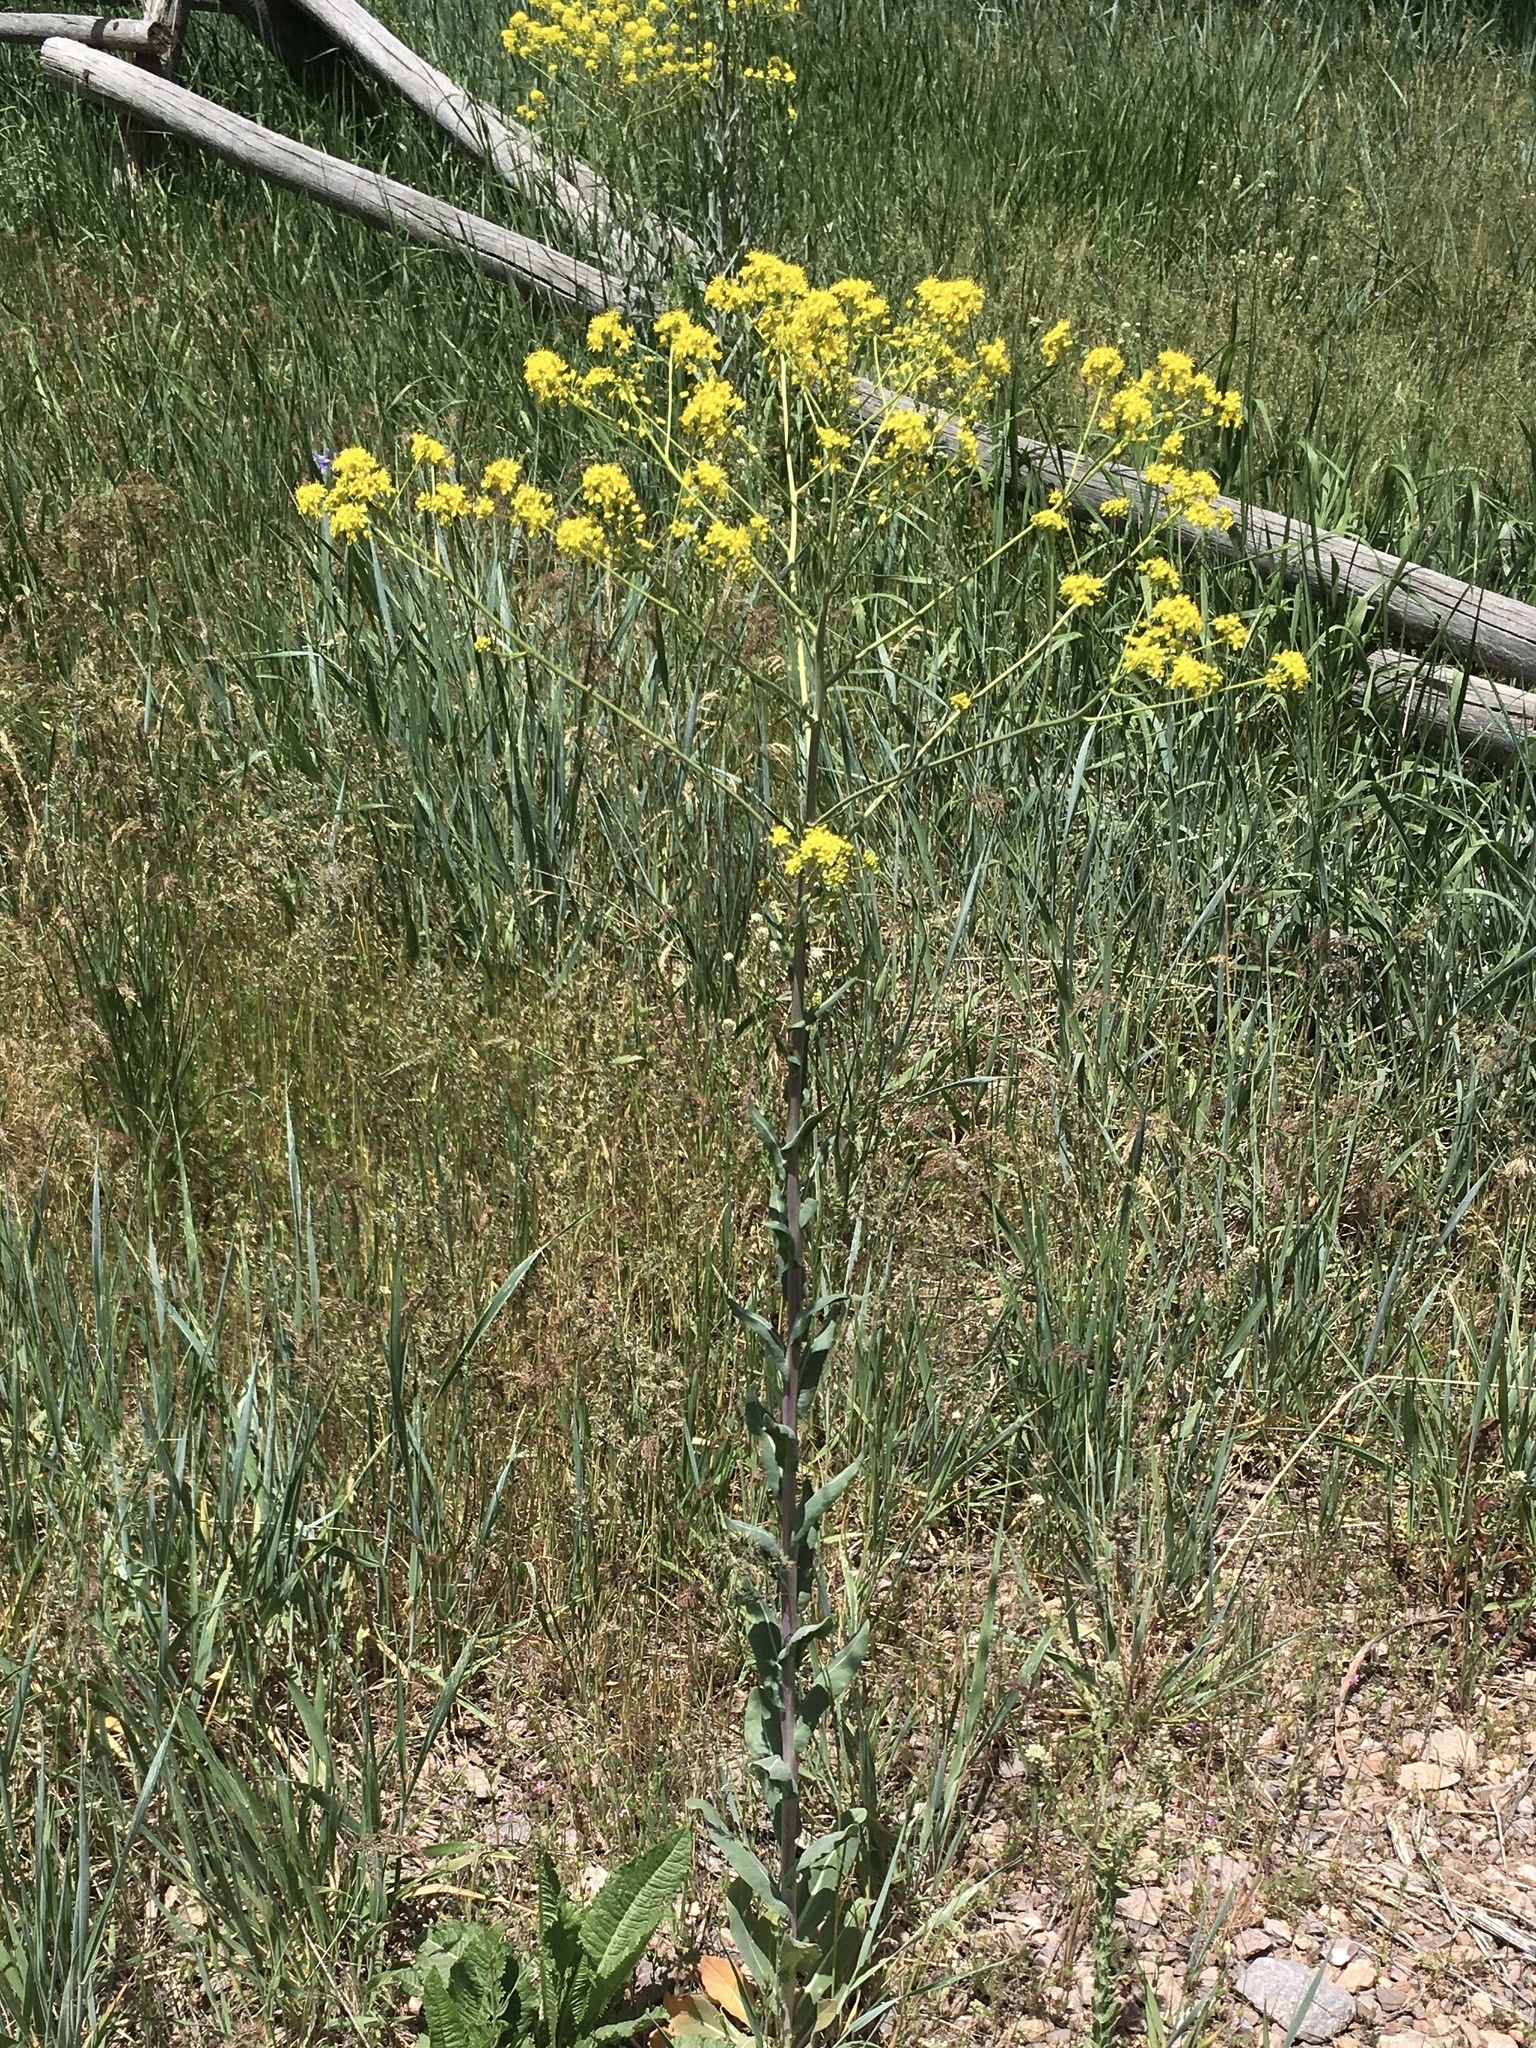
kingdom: Plantae
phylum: Tracheophyta
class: Magnoliopsida
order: Brassicales
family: Brassicaceae
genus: Isatis
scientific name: Isatis tinctoria
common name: Woad
